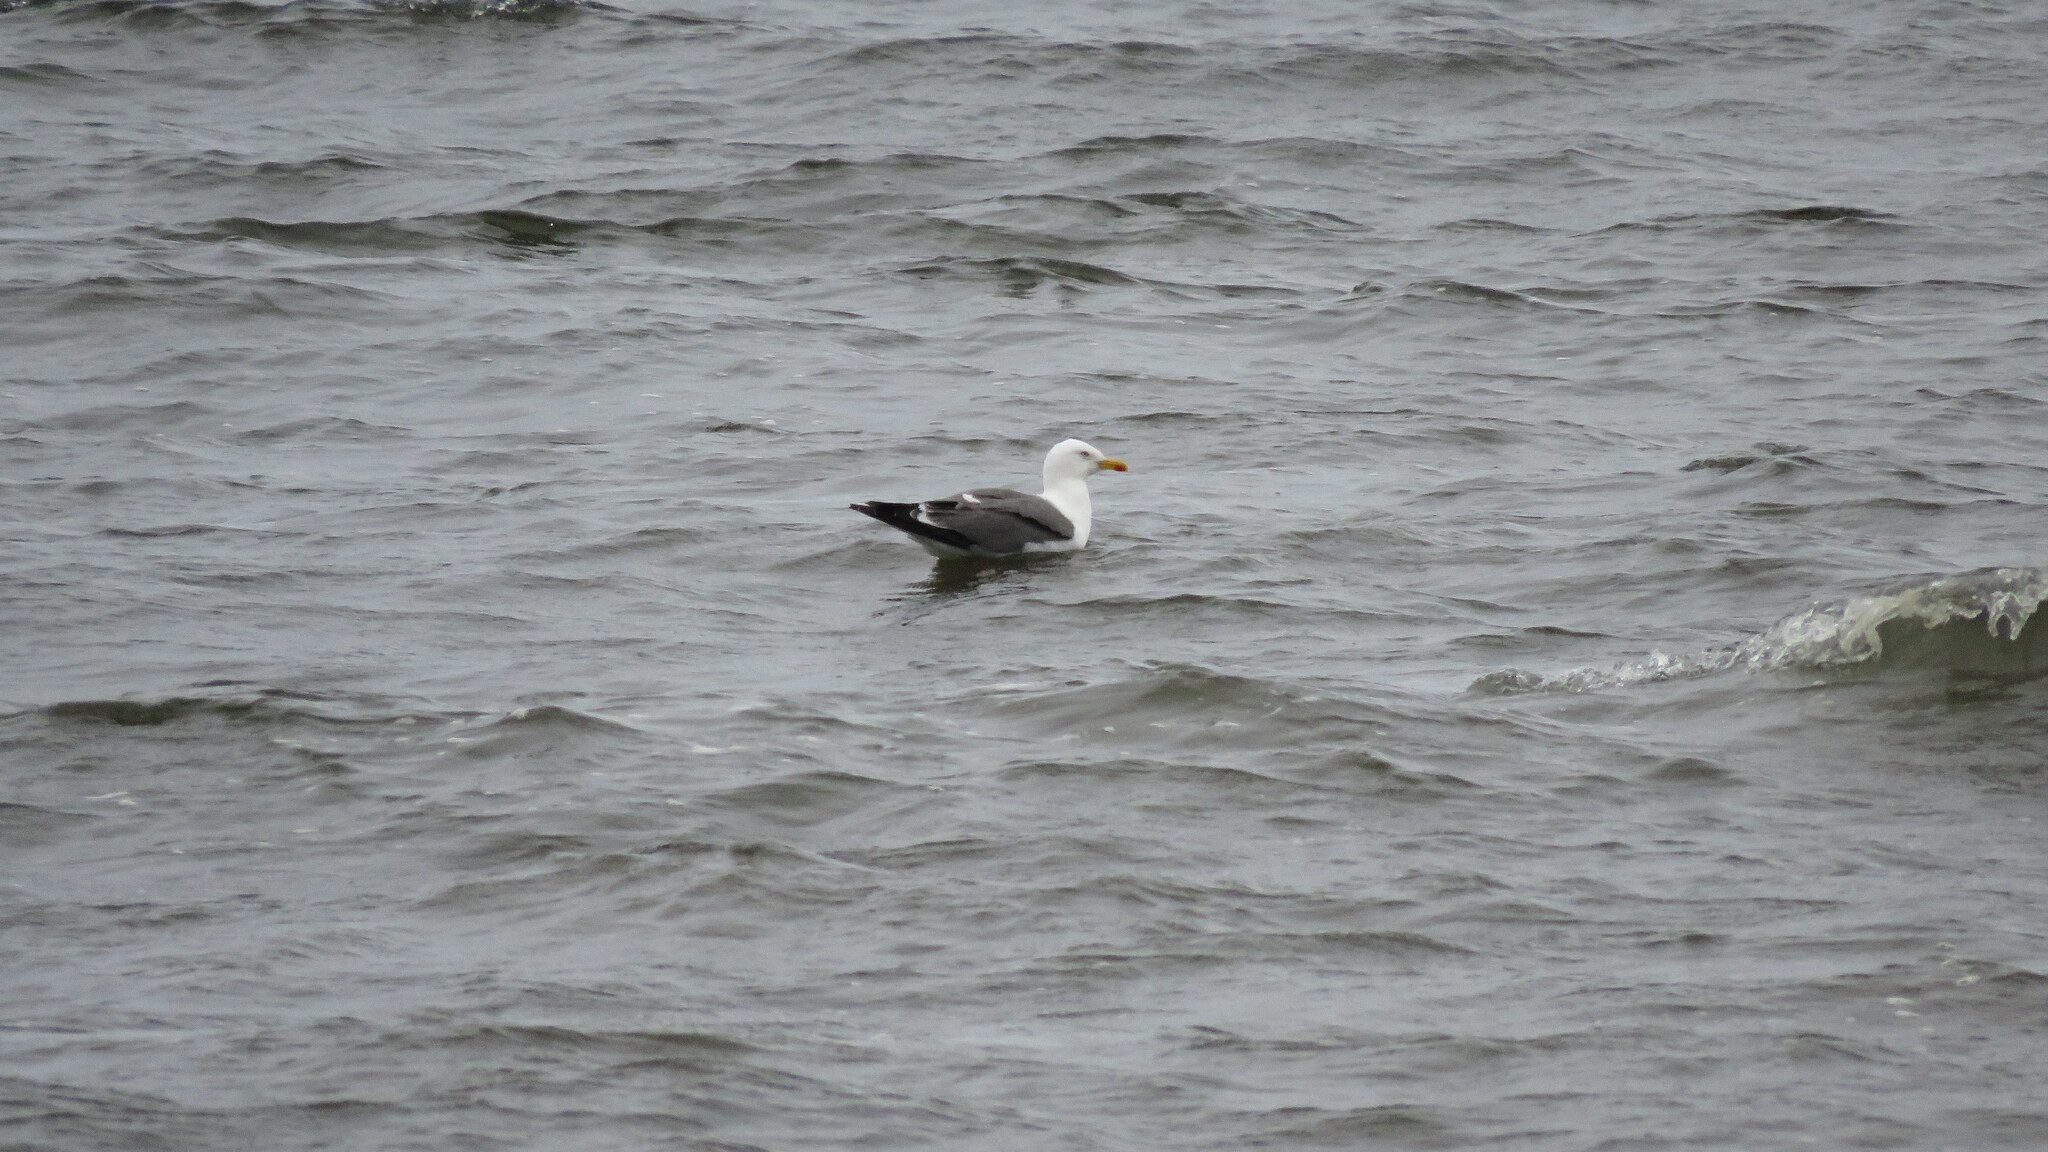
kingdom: Animalia
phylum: Chordata
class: Aves
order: Charadriiformes
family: Laridae
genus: Larus
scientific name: Larus fuscus
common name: Lesser black-backed gull
